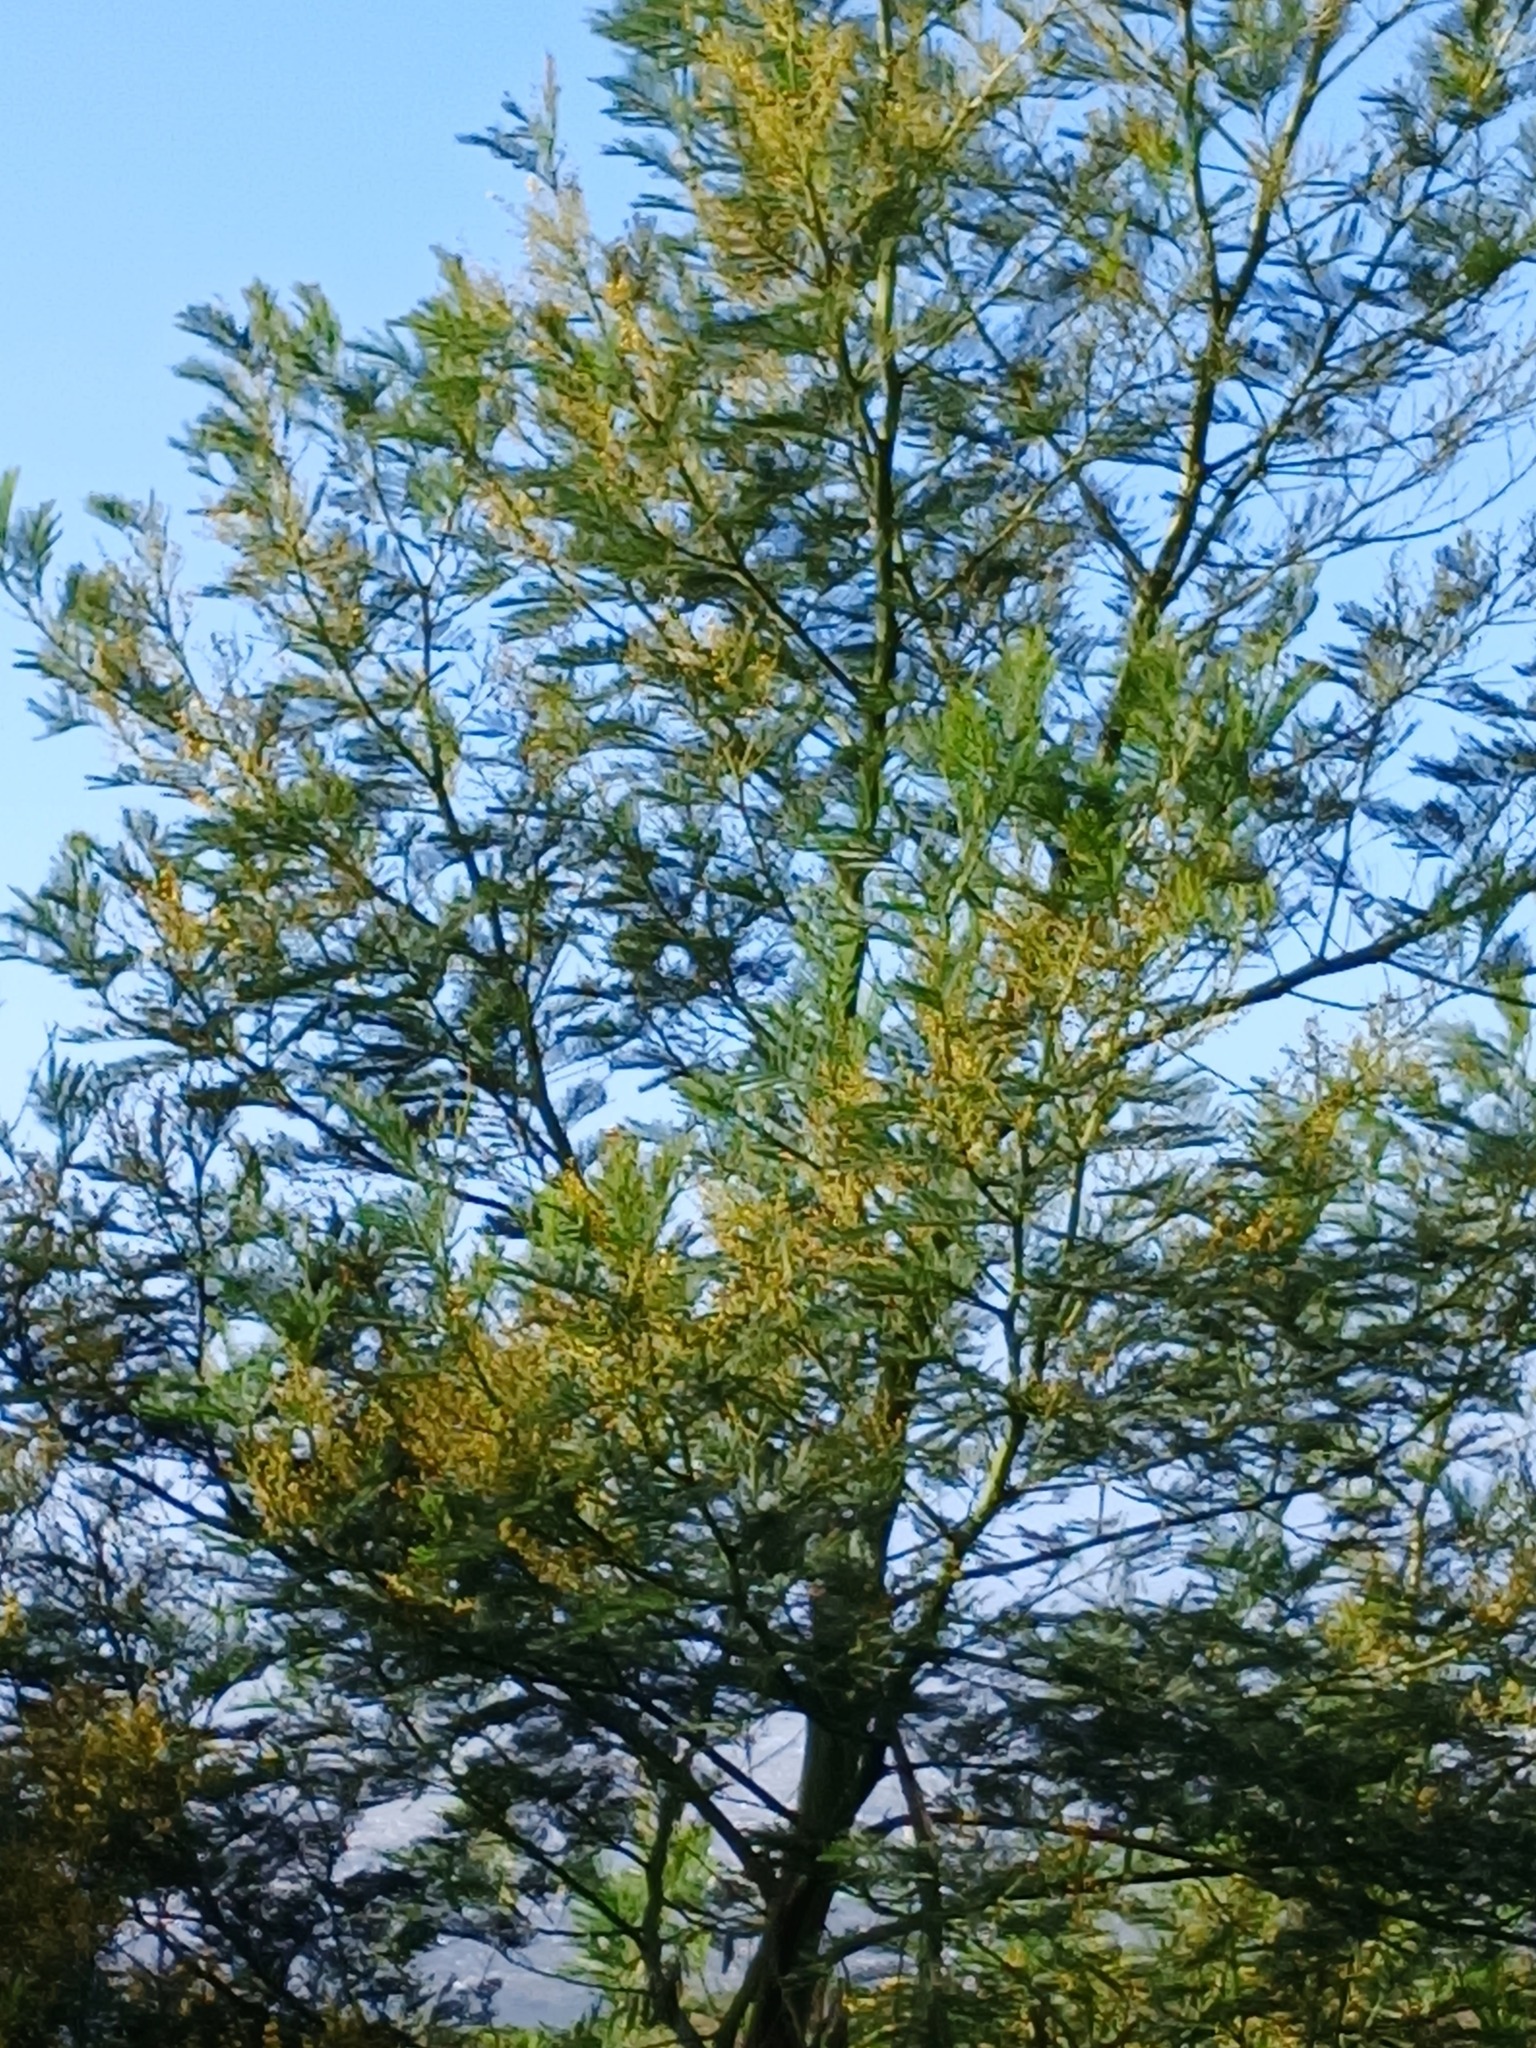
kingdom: Plantae
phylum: Tracheophyta
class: Magnoliopsida
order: Fabales
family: Fabaceae
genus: Acacia
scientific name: Acacia mearnsii
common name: Black wattle
